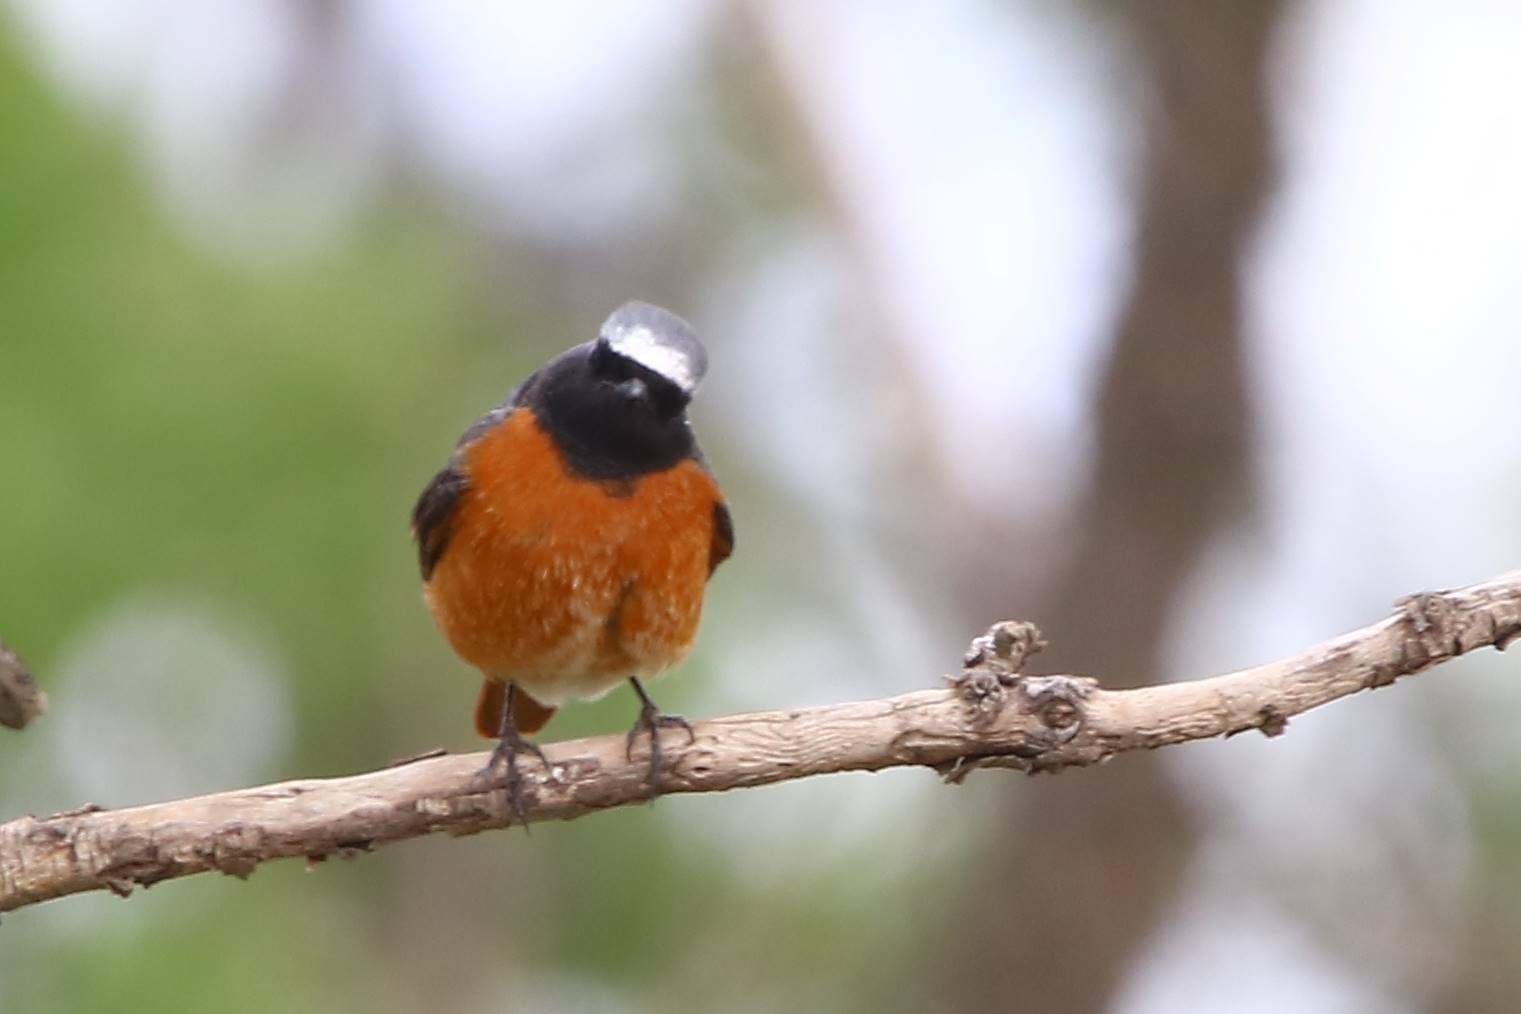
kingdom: Animalia
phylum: Chordata
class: Aves
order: Passeriformes
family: Muscicapidae
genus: Phoenicurus
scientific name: Phoenicurus phoenicurus
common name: Common redstart
